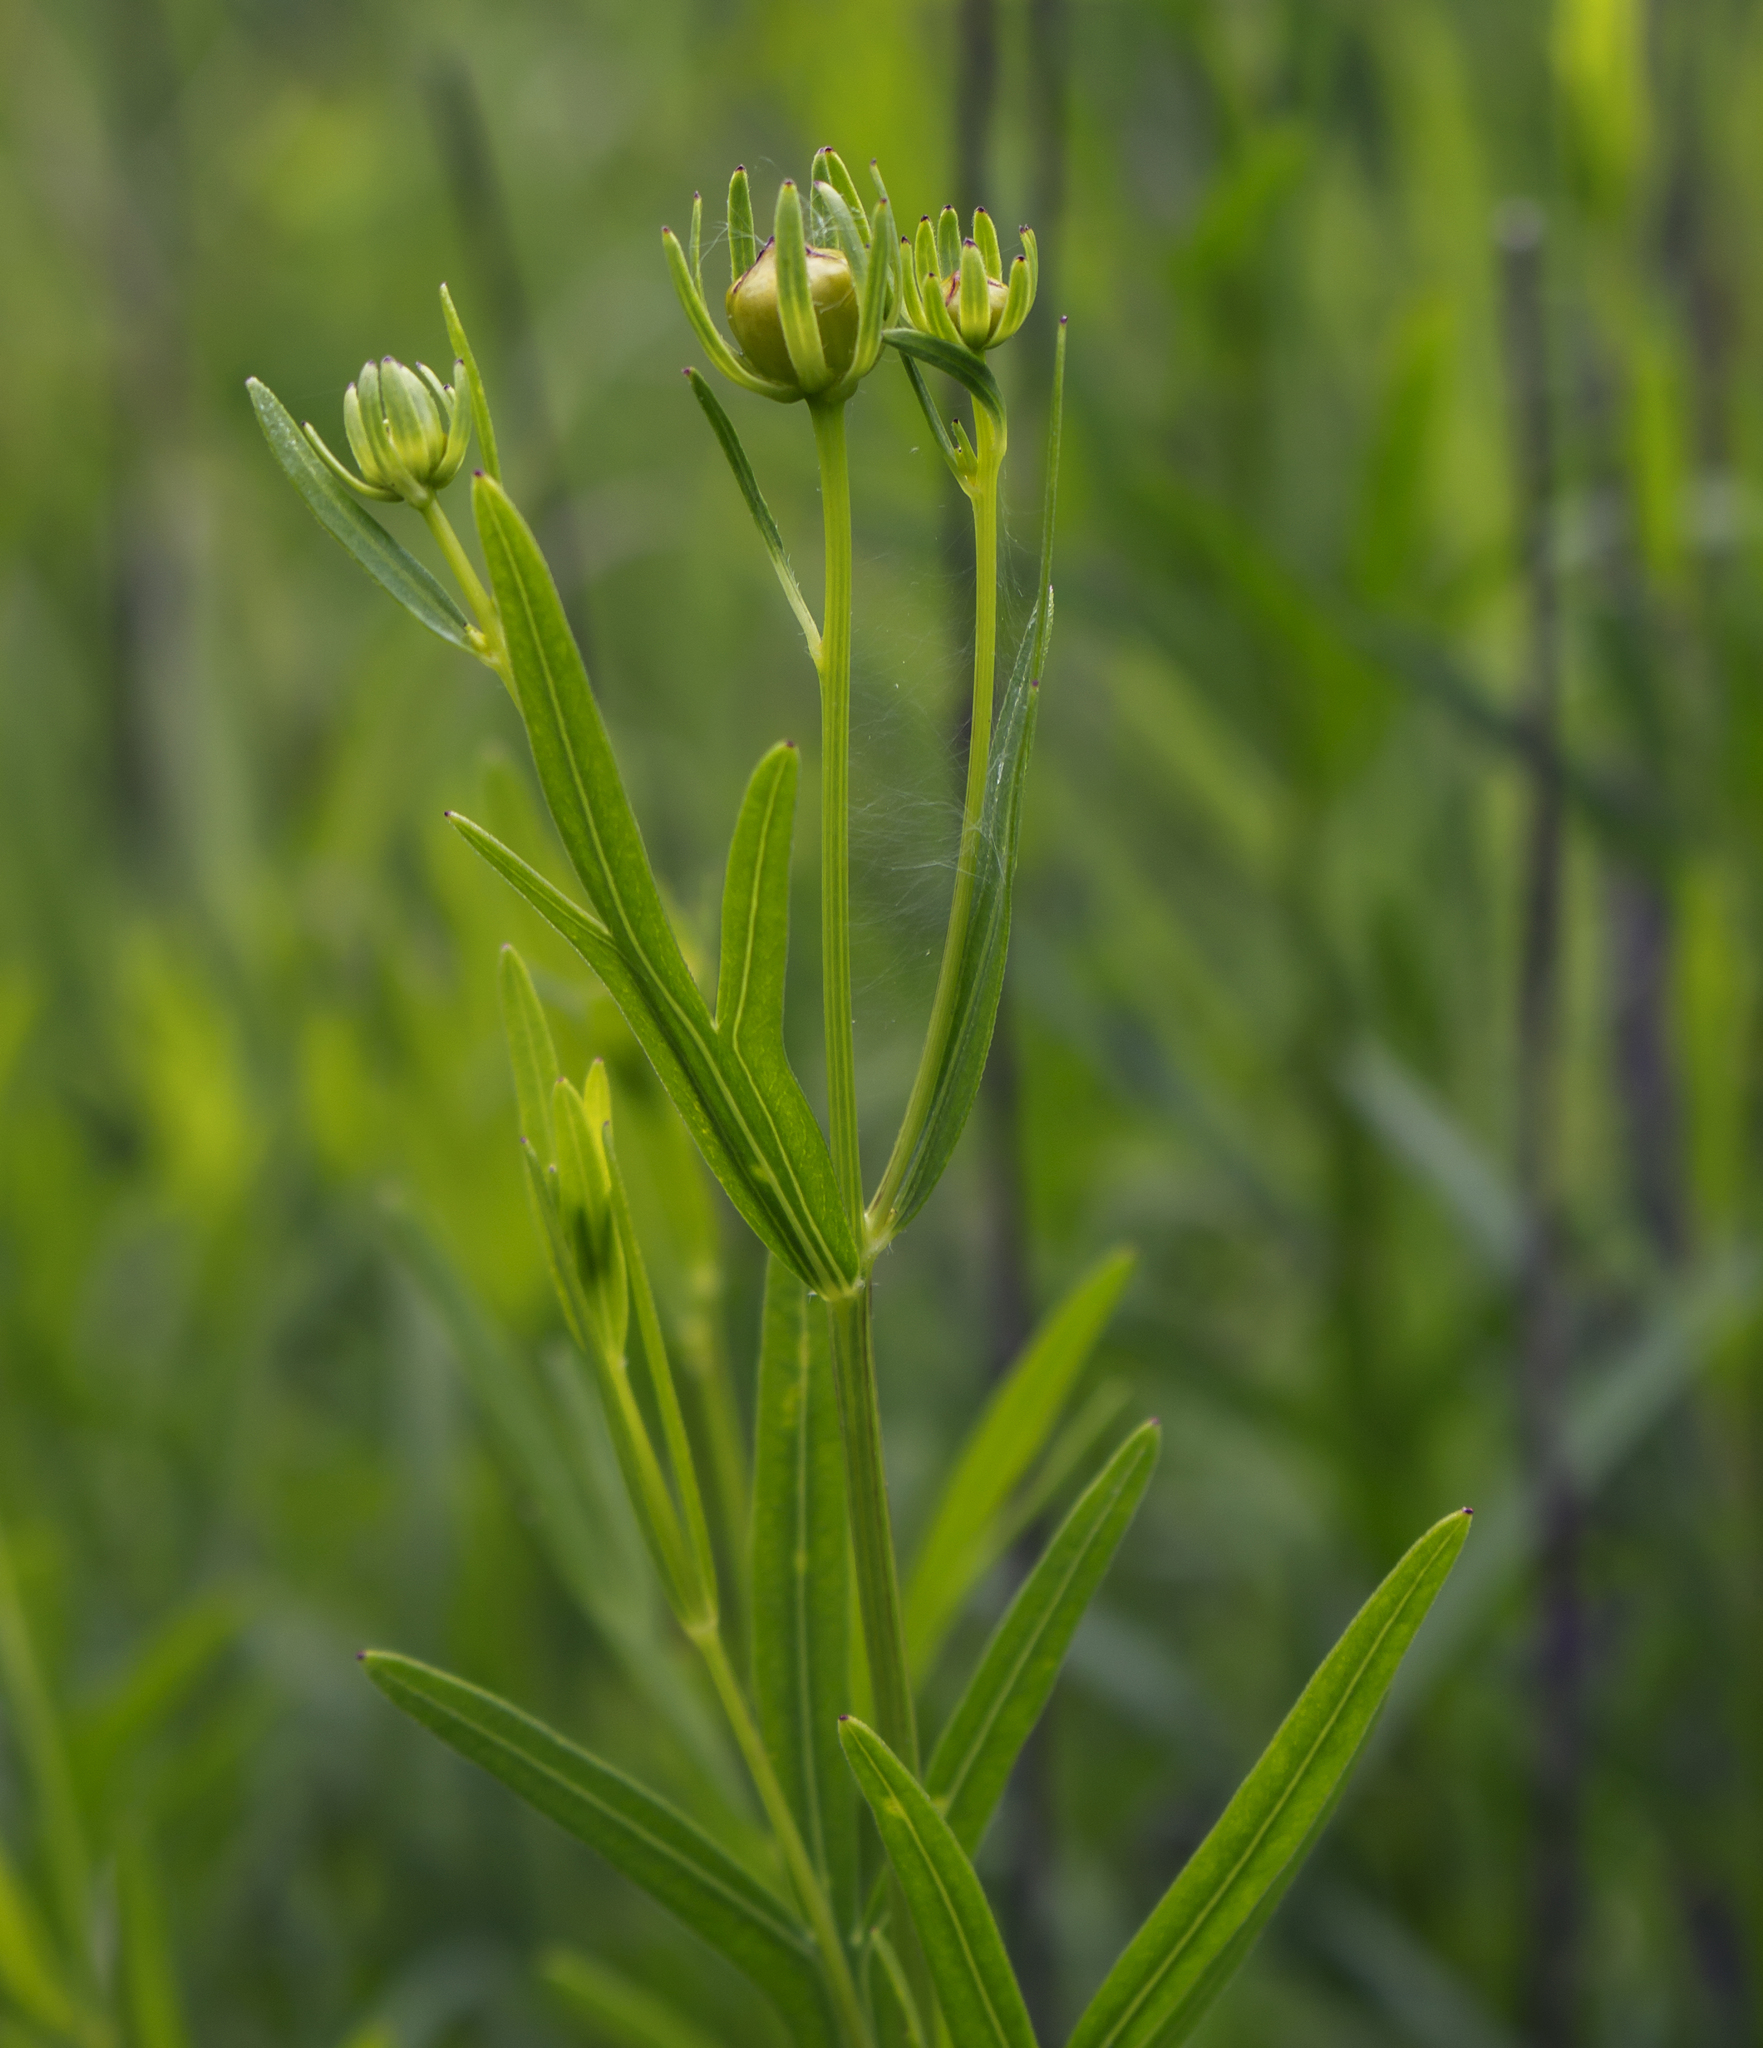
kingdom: Plantae
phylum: Tracheophyta
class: Magnoliopsida
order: Asterales
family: Asteraceae
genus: Coreopsis
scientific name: Coreopsis palmata
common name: Prairie coreopsis
